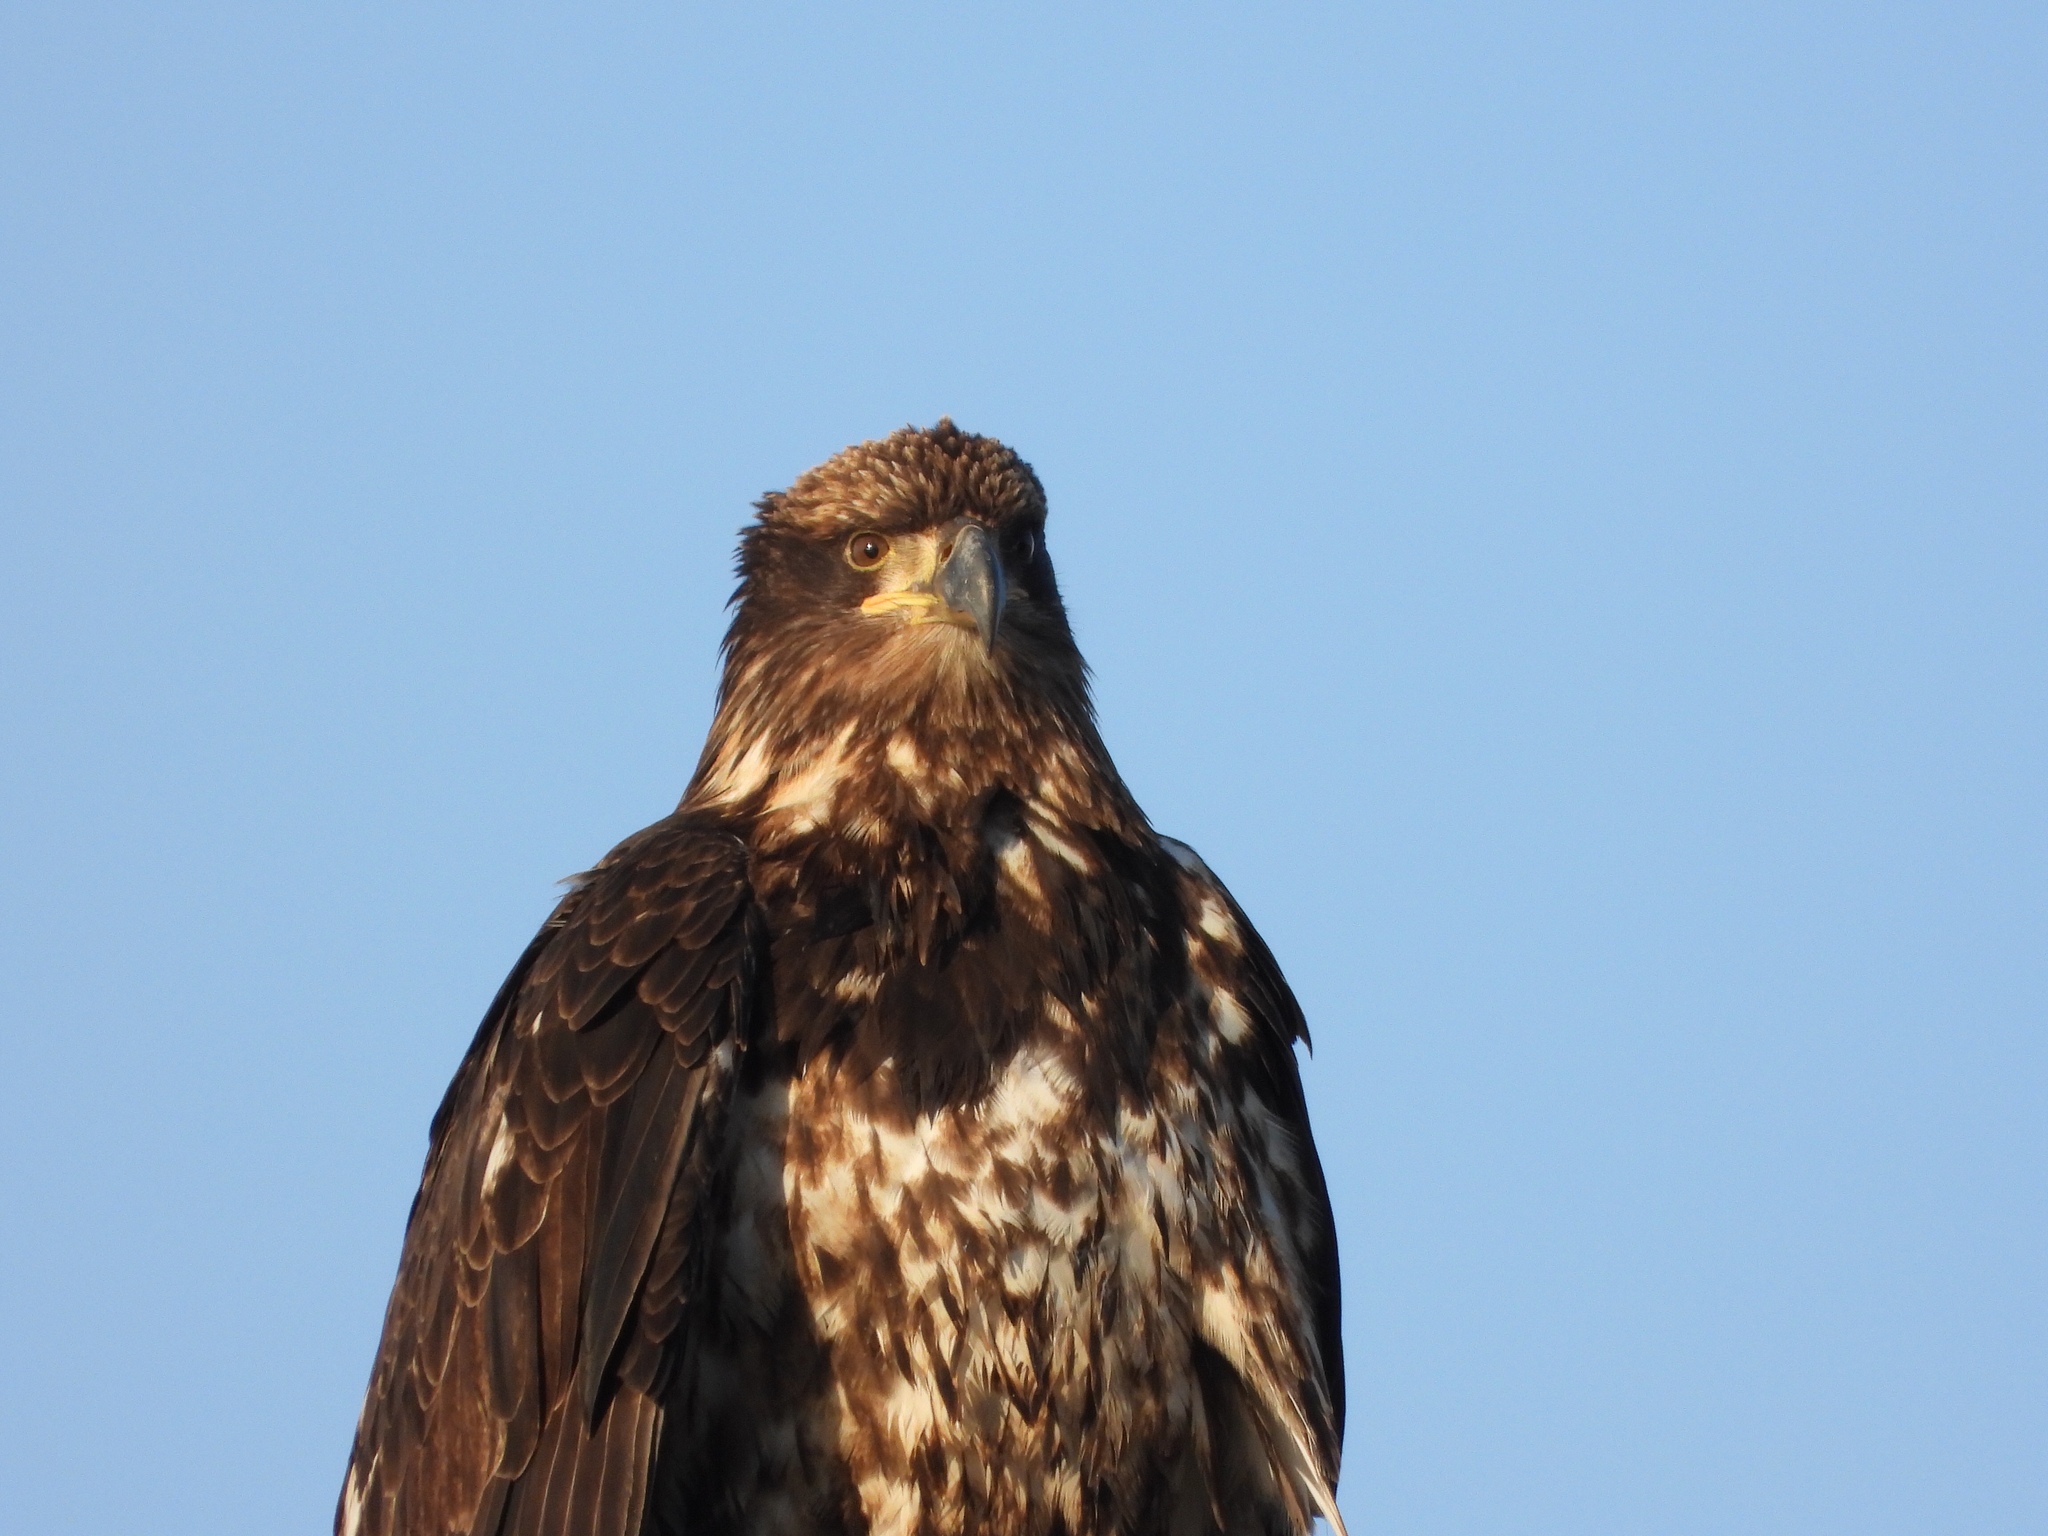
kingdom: Animalia
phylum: Chordata
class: Aves
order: Accipitriformes
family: Accipitridae
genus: Haliaeetus
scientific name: Haliaeetus leucocephalus
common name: Bald eagle
